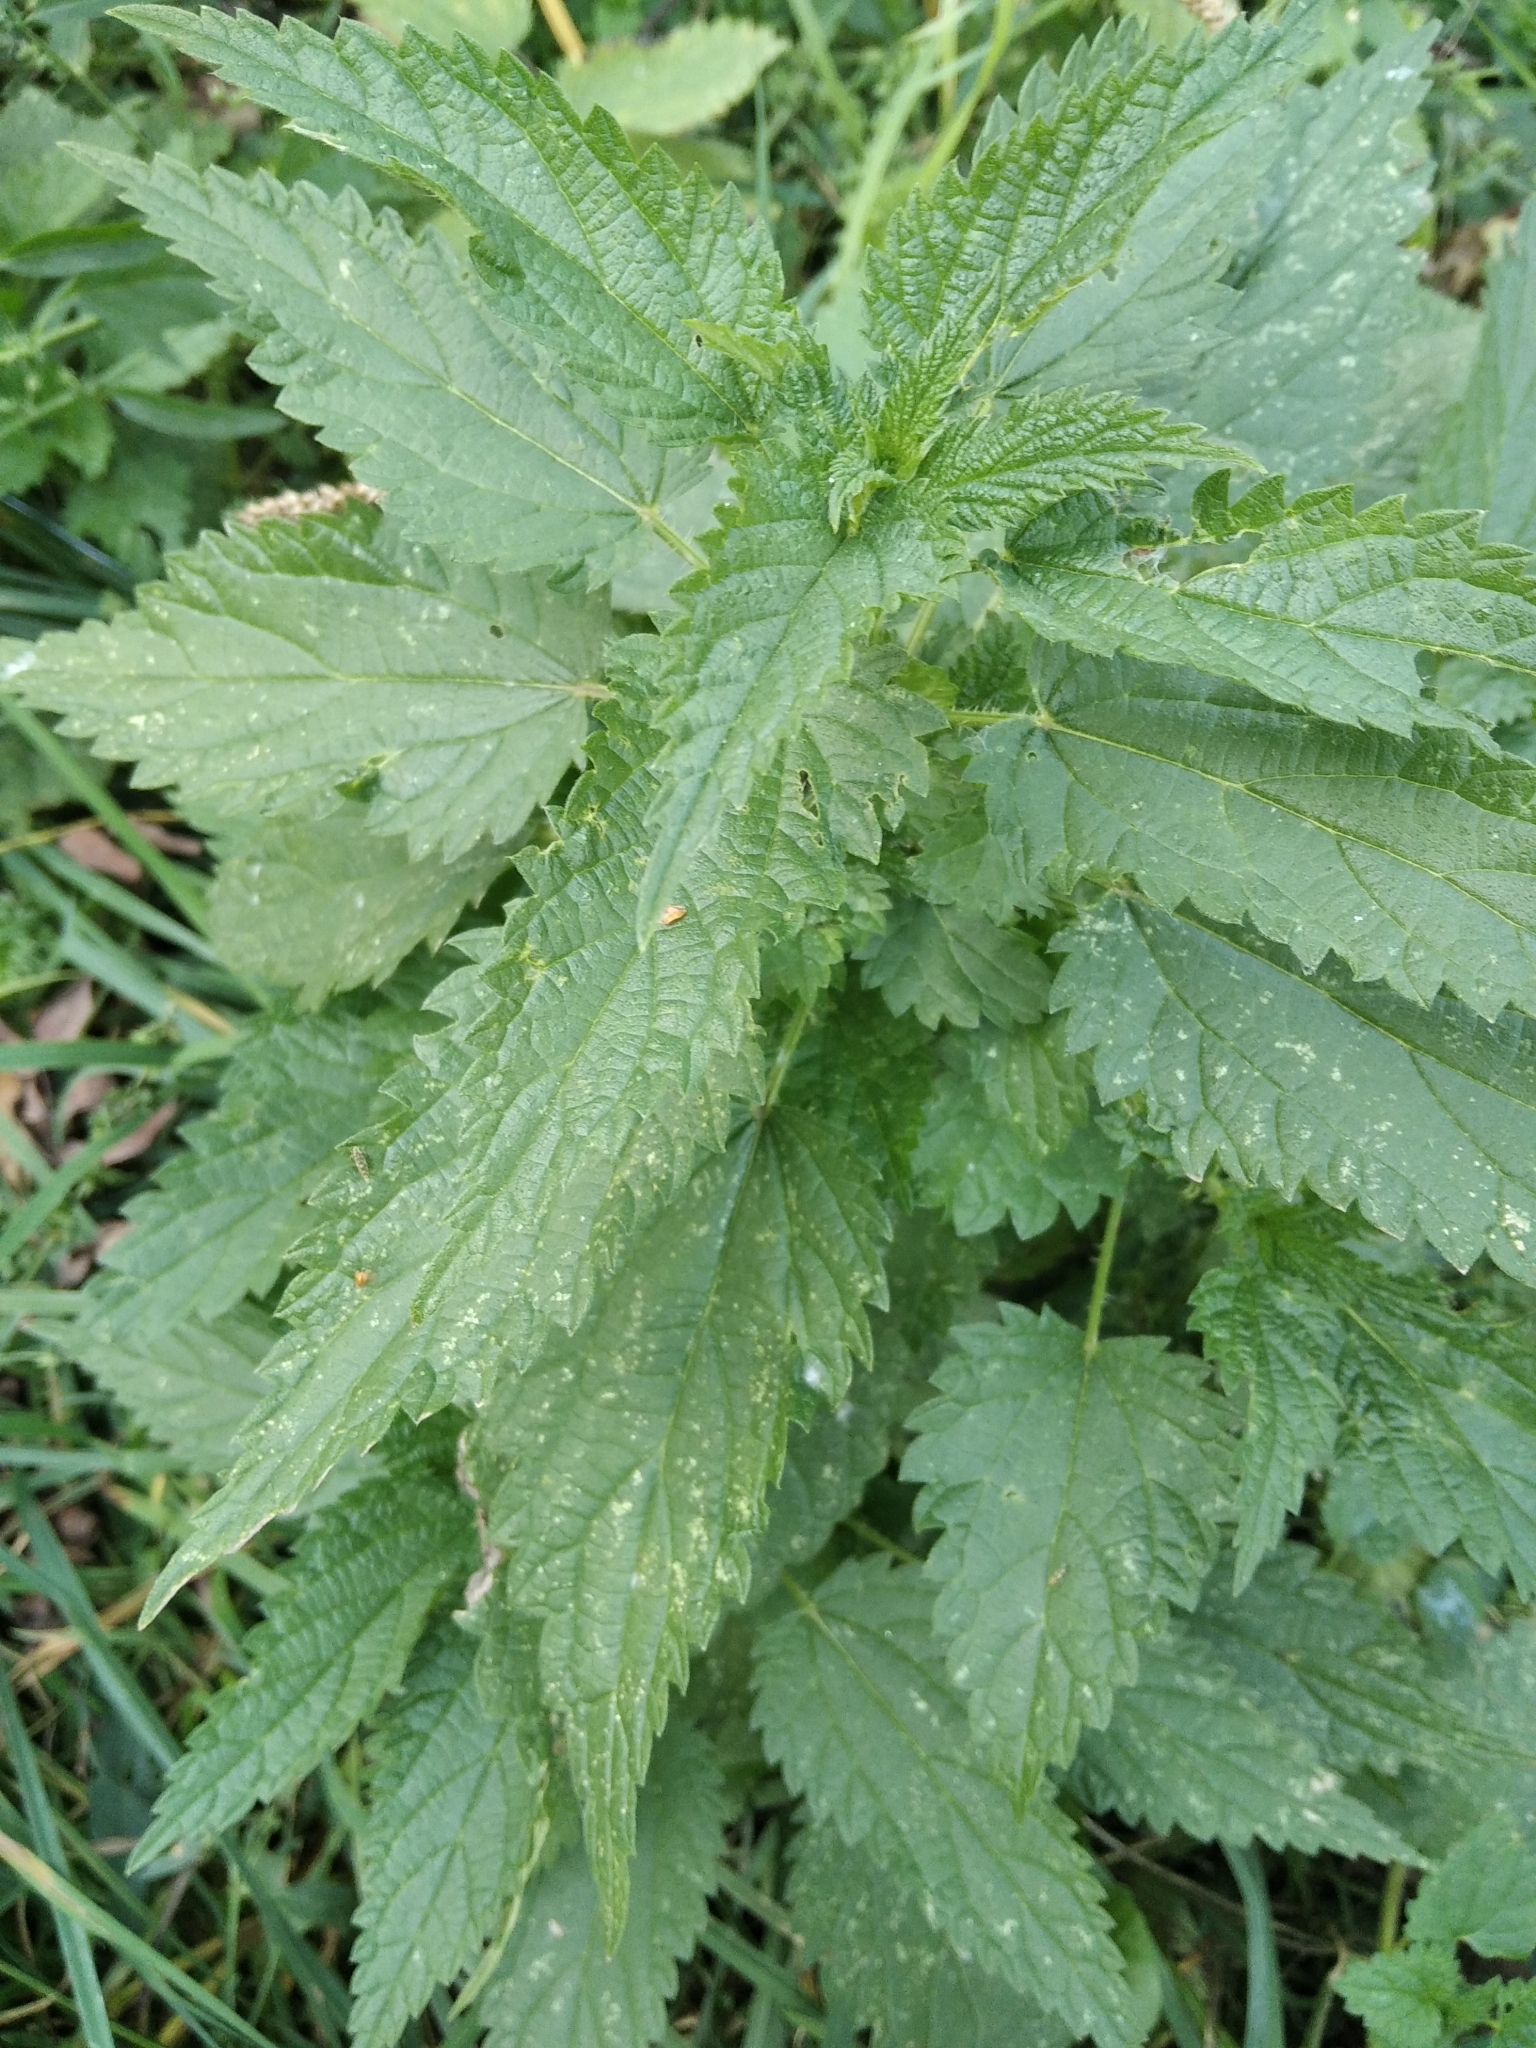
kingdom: Plantae
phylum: Tracheophyta
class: Magnoliopsida
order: Rosales
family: Urticaceae
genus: Urtica
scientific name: Urtica dioica
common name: Common nettle
